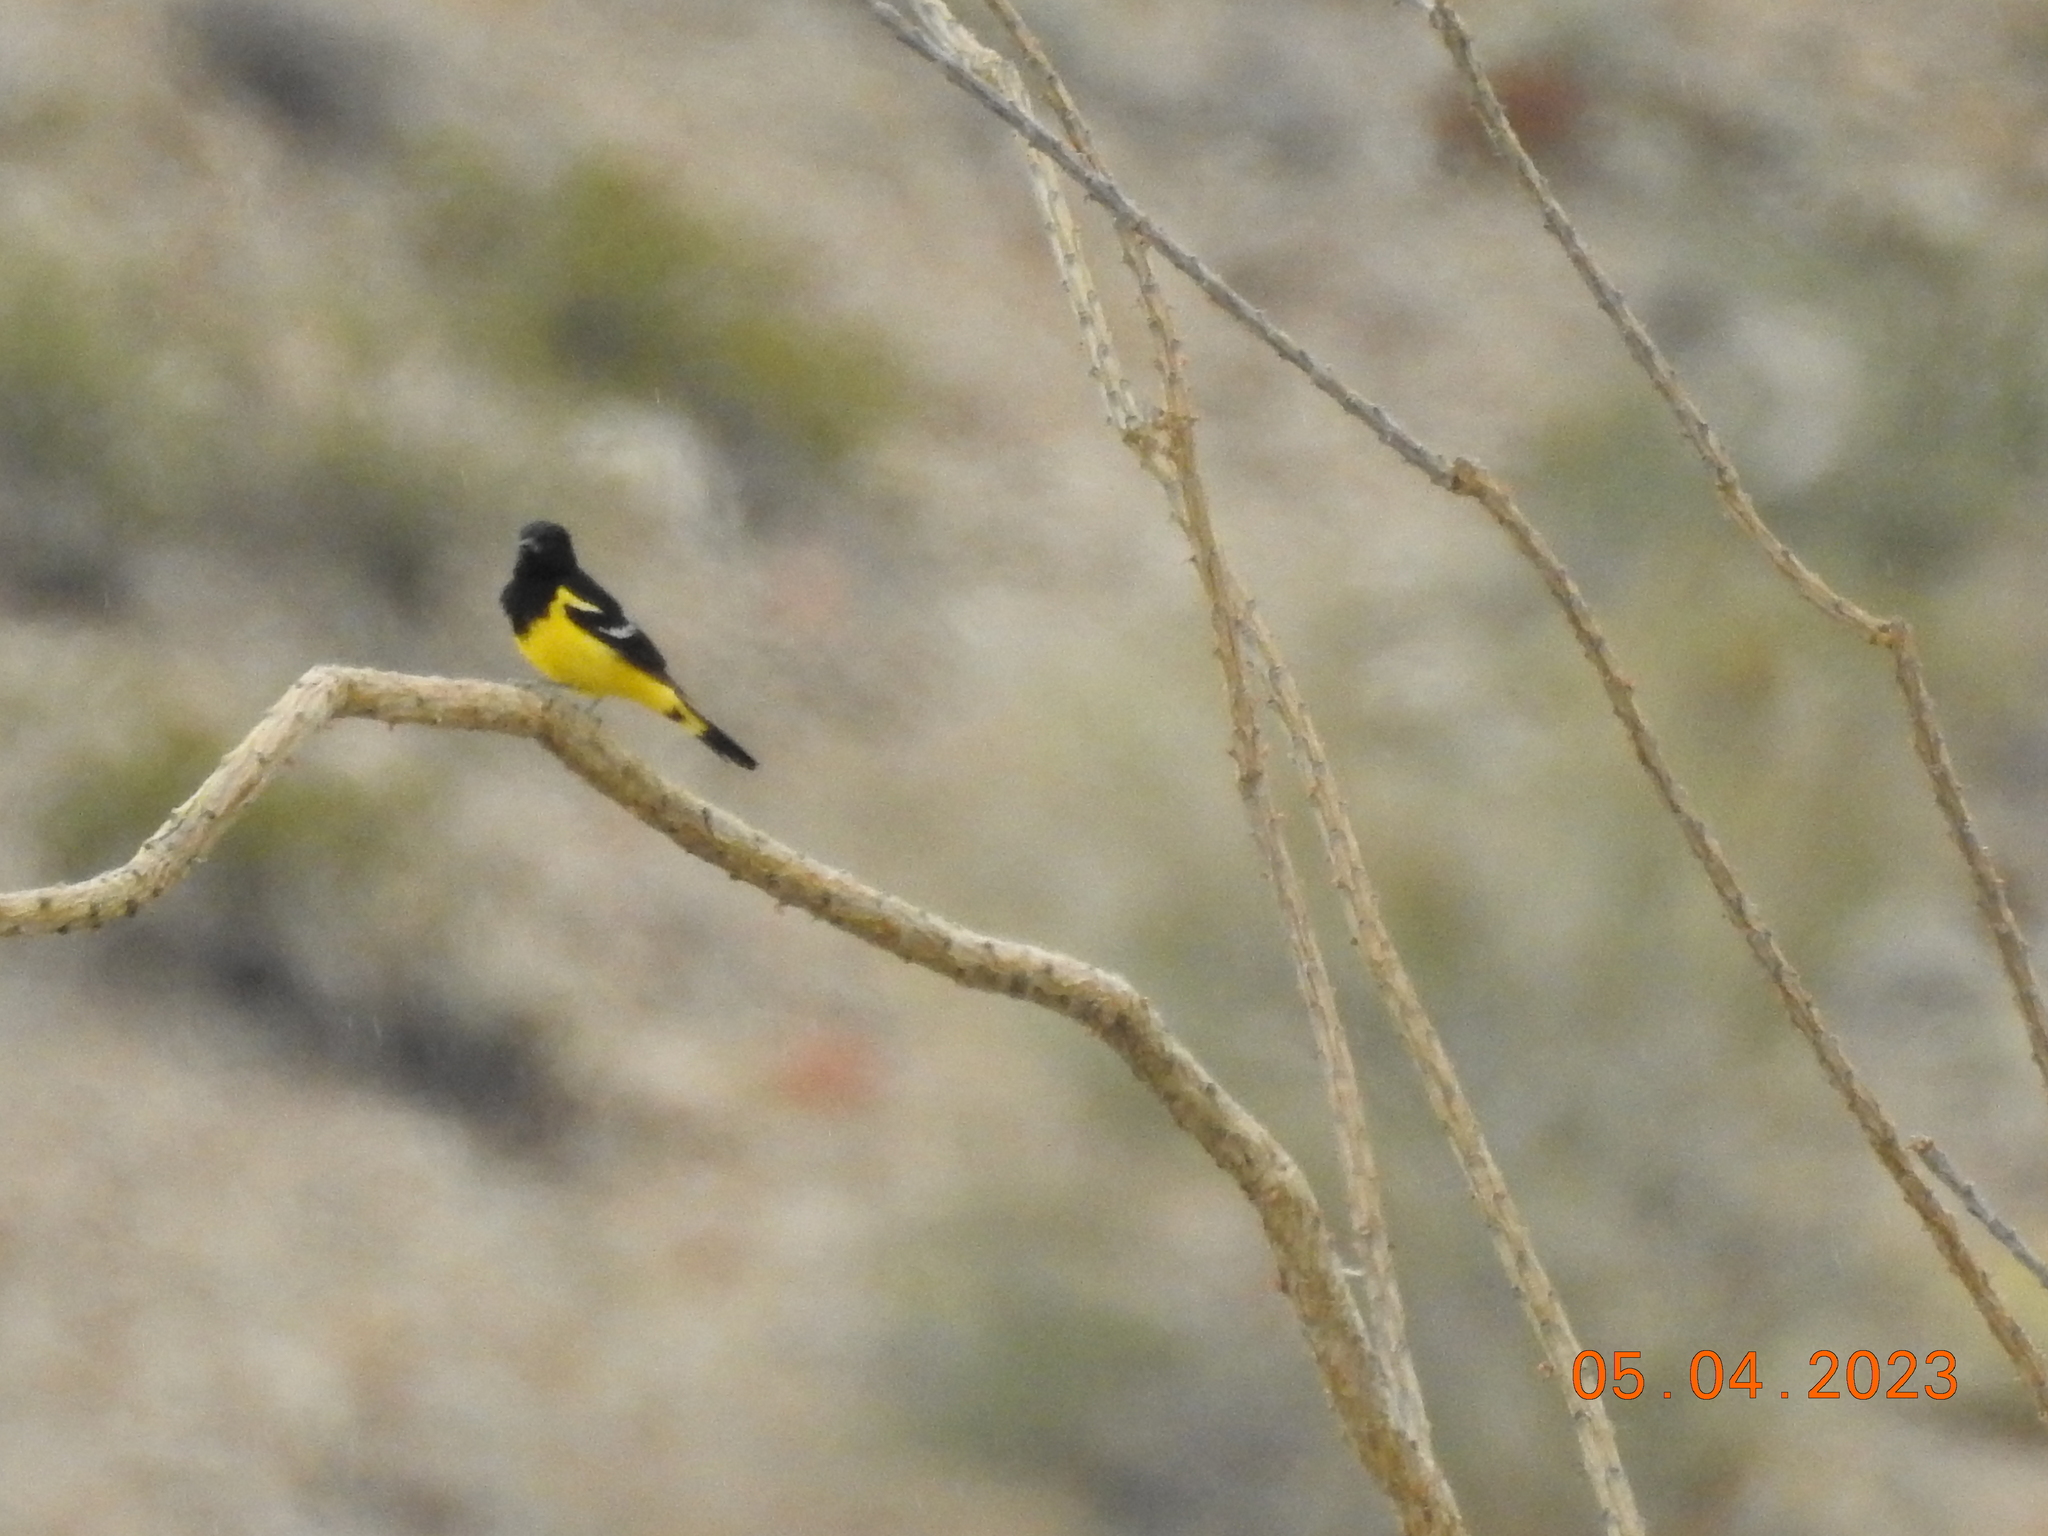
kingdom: Animalia
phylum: Chordata
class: Aves
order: Passeriformes
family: Icteridae
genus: Icterus
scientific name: Icterus parisorum
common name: Scott's oriole
